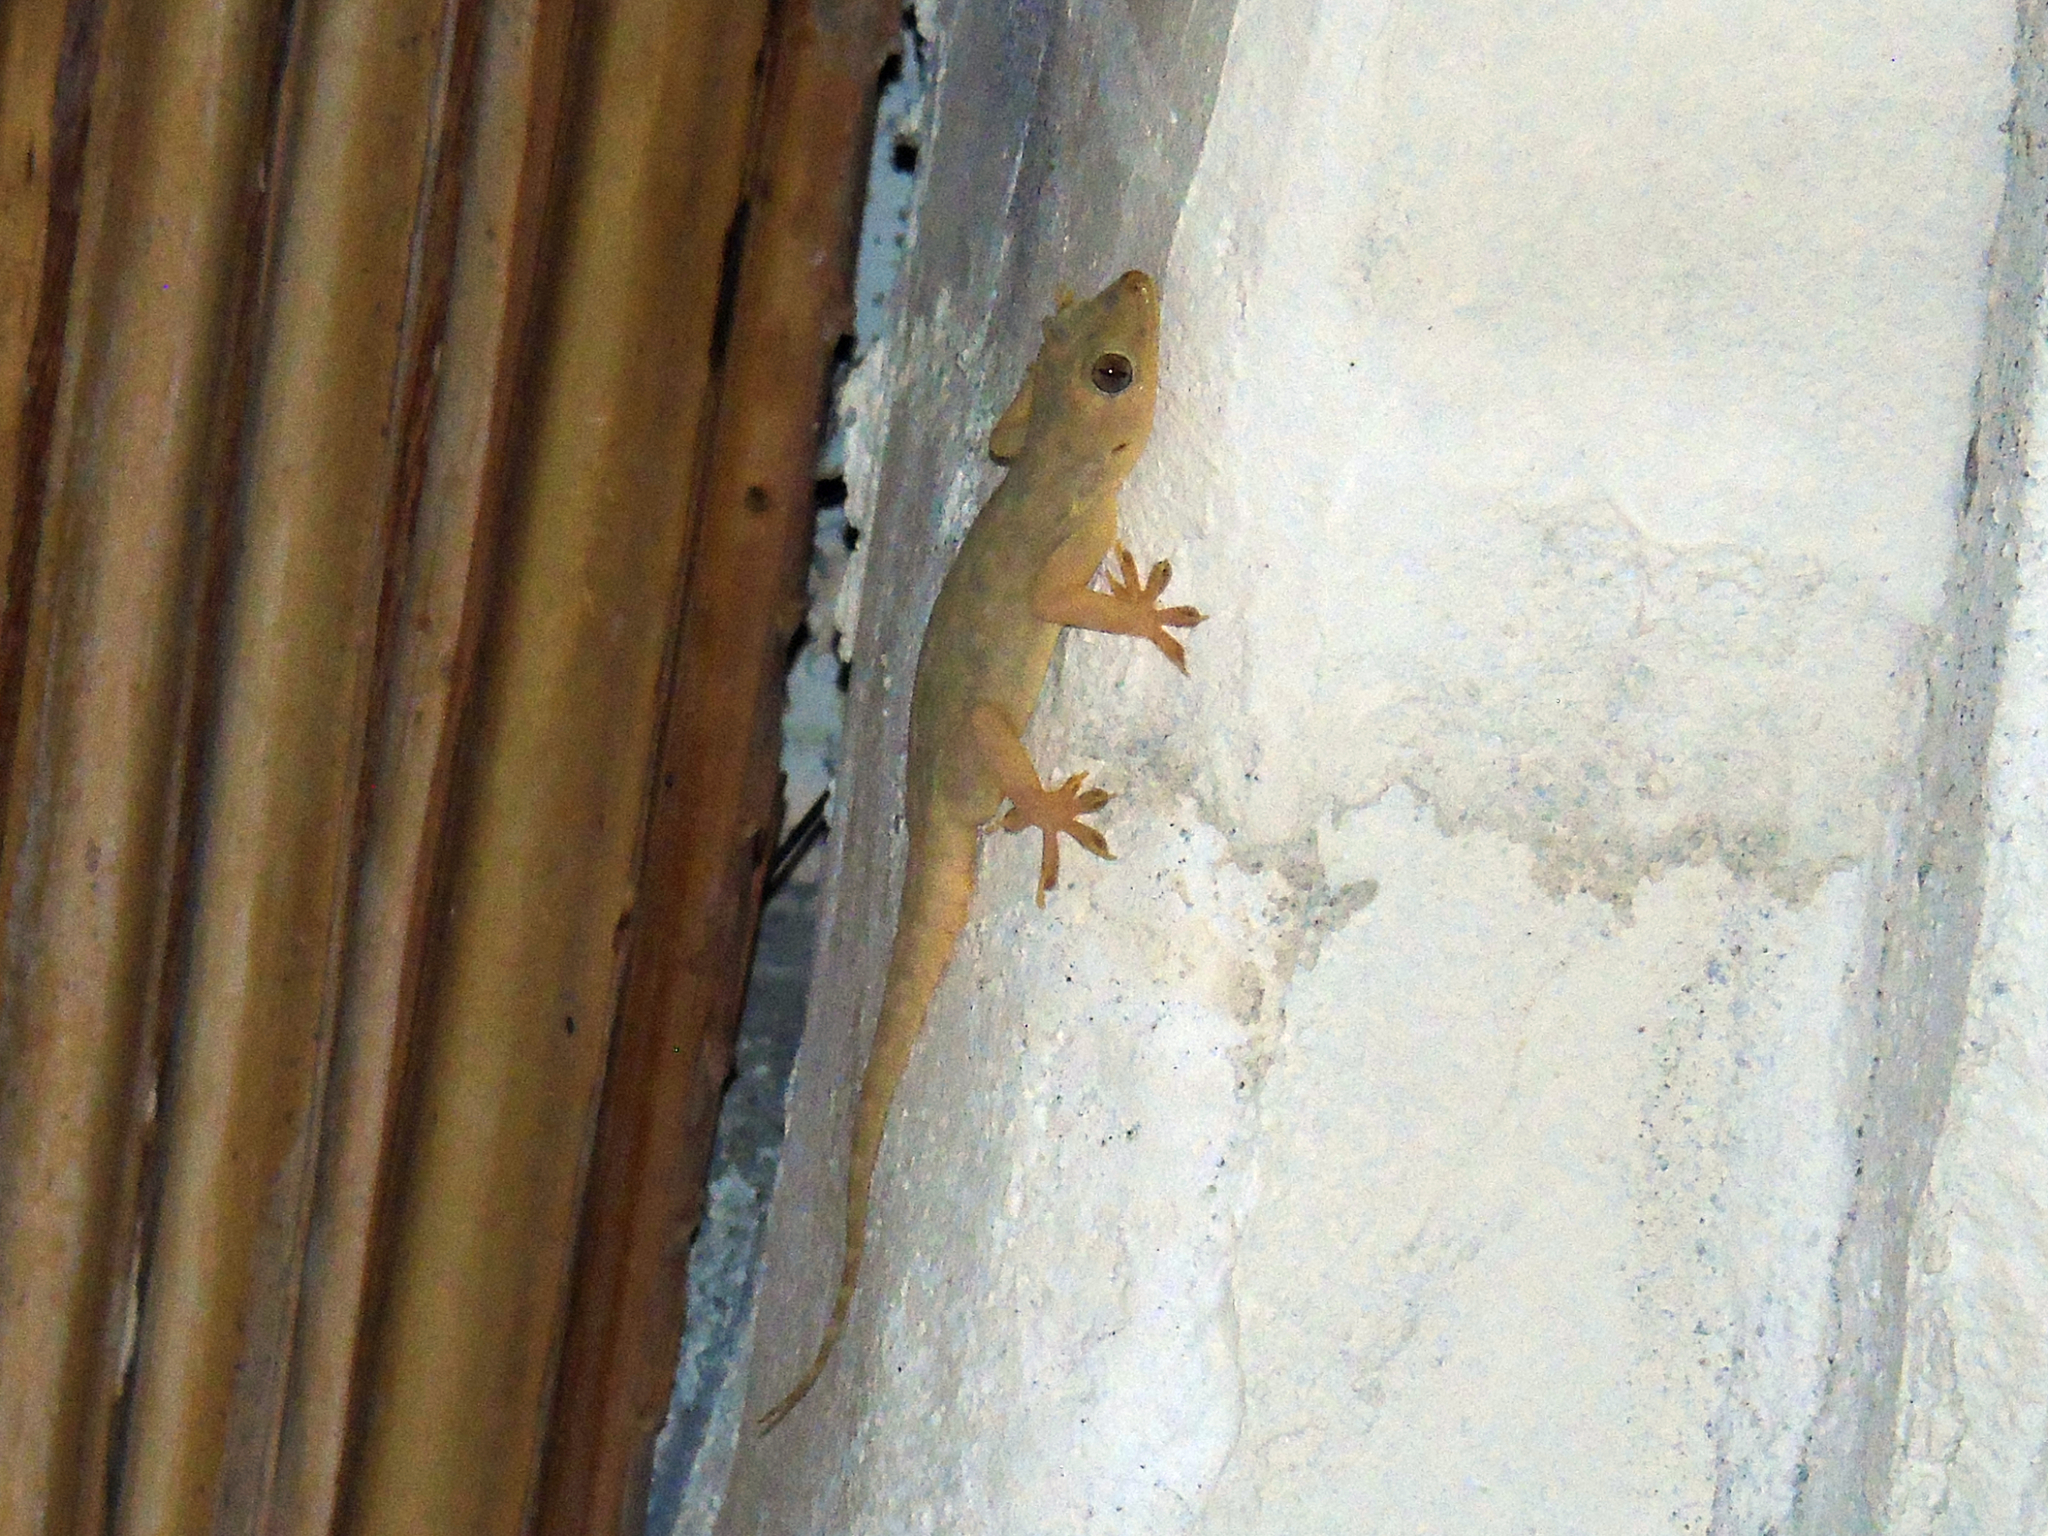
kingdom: Animalia
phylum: Chordata
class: Squamata
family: Gekkonidae
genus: Hemidactylus
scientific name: Hemidactylus flaviviridis
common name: Northern house gecko
